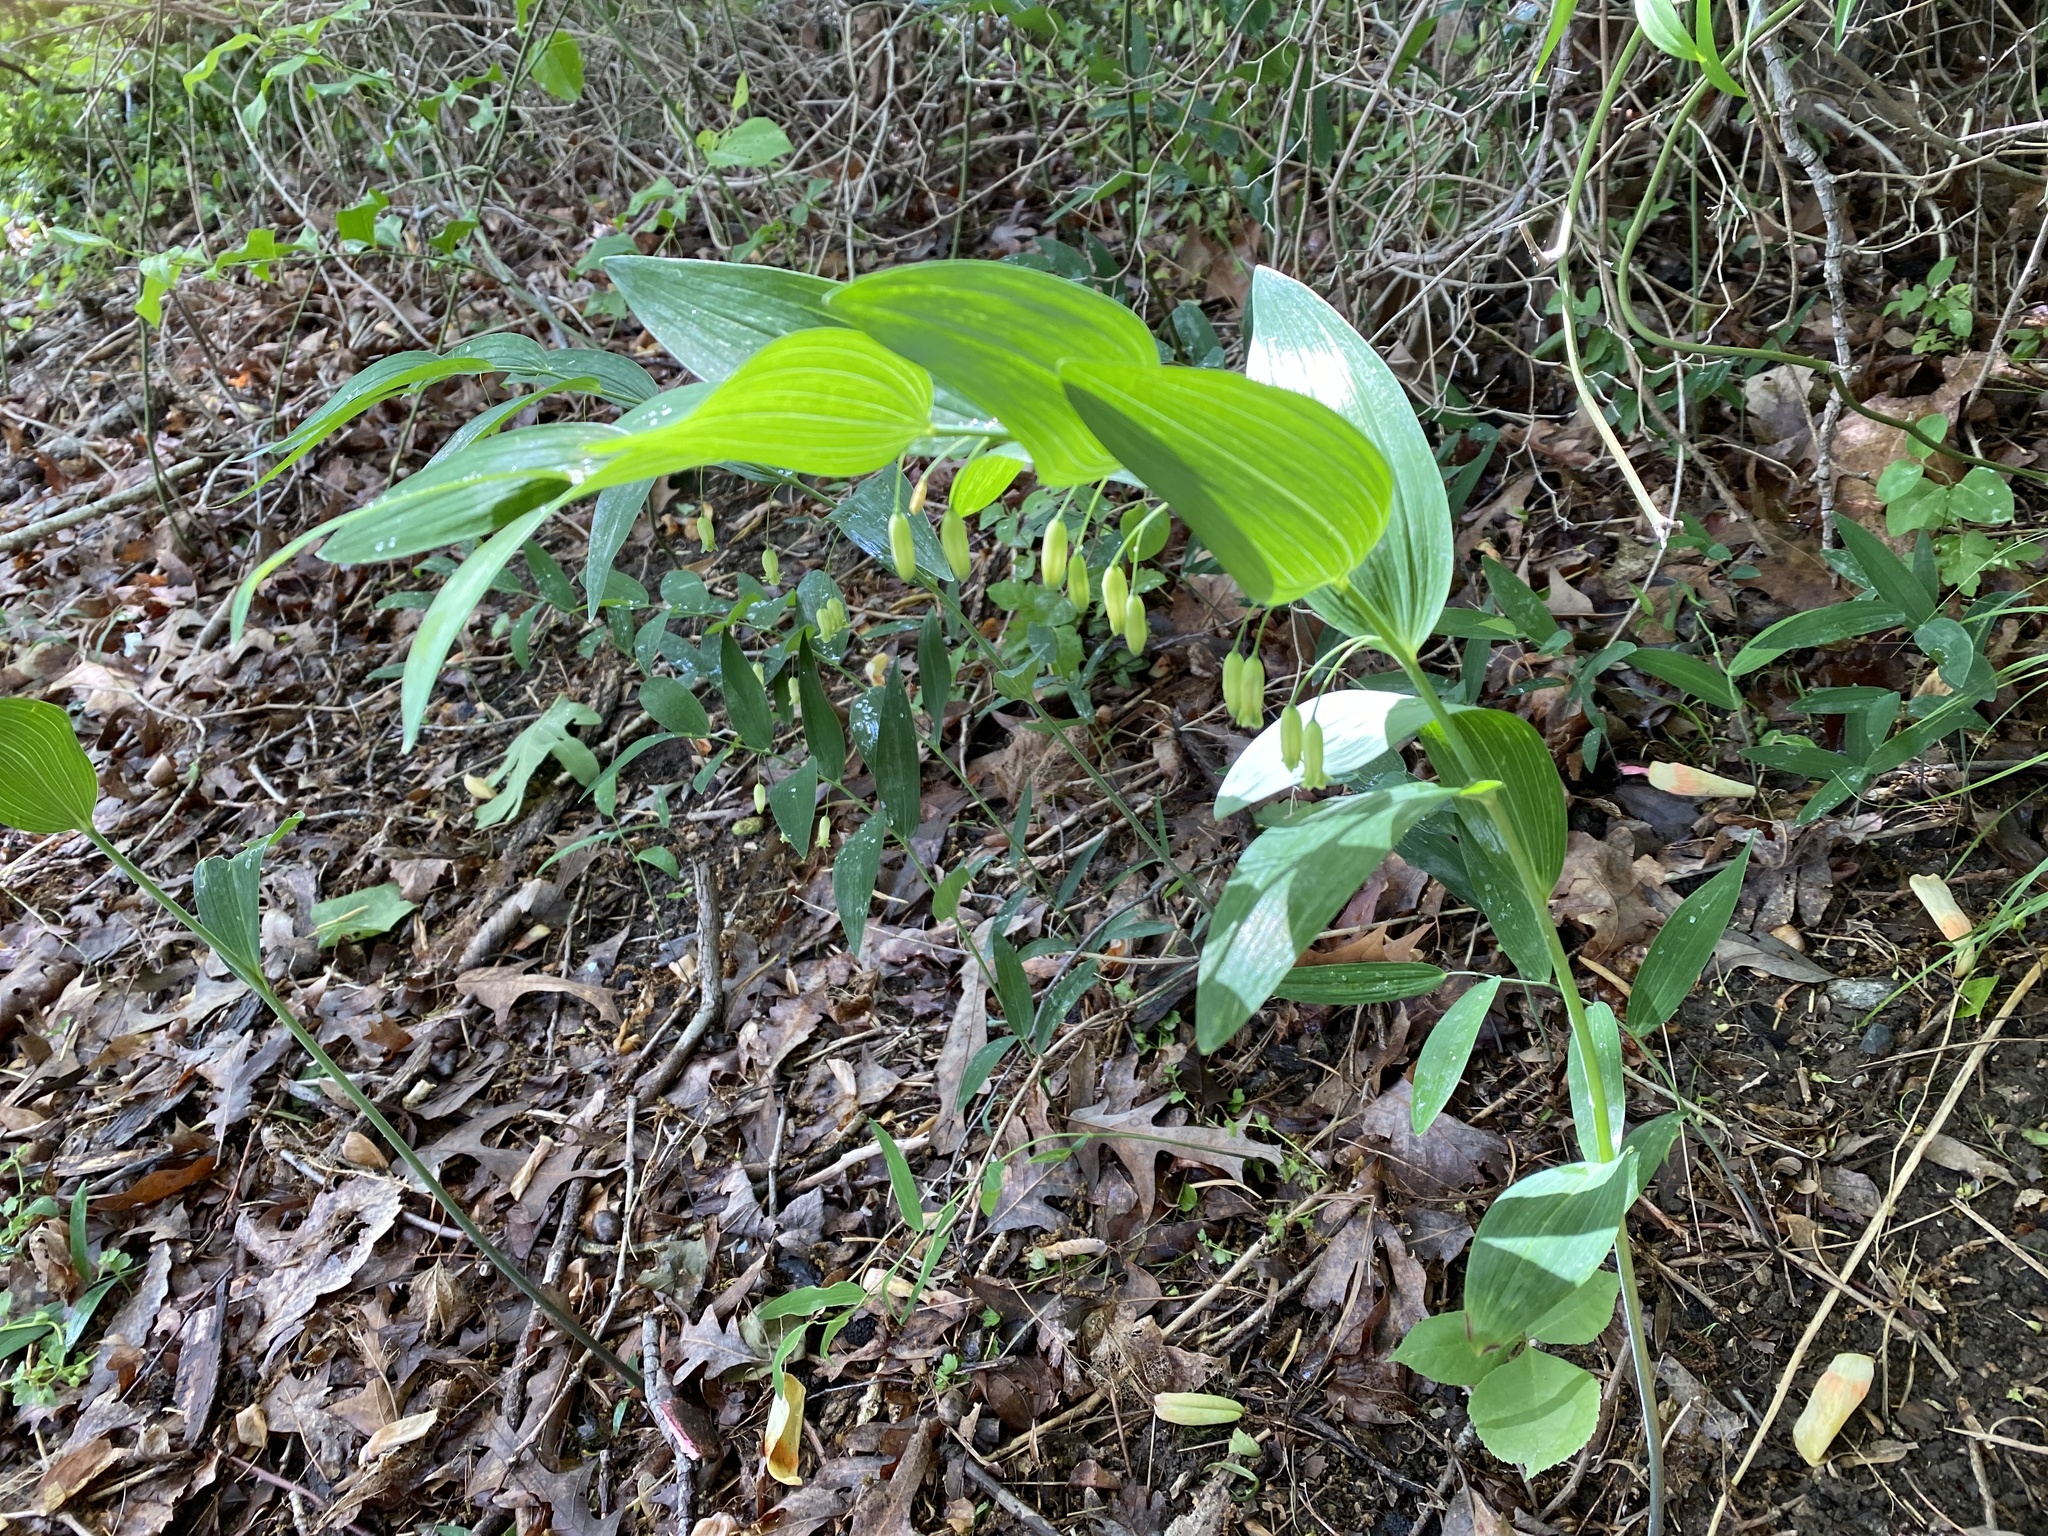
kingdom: Plantae
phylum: Tracheophyta
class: Liliopsida
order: Asparagales
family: Asparagaceae
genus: Polygonatum
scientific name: Polygonatum biflorum
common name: American solomon's-seal
